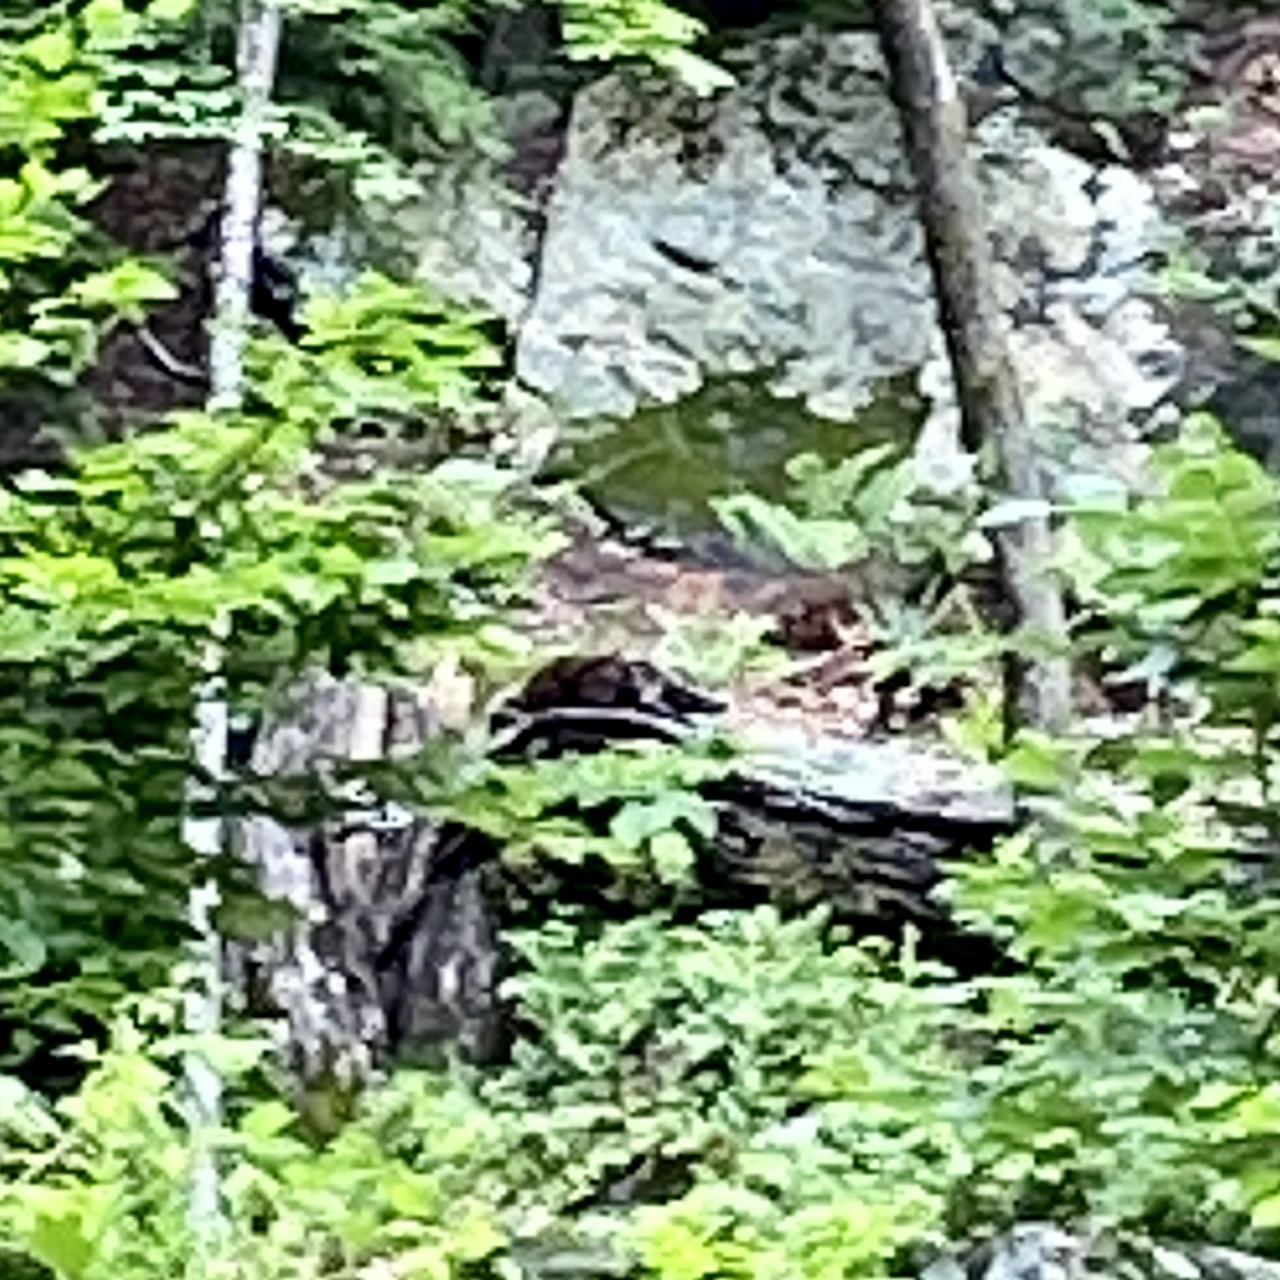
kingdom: Animalia
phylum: Chordata
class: Mammalia
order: Rodentia
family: Erethizontidae
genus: Erethizon
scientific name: Erethizon dorsatus
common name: North american porcupine
